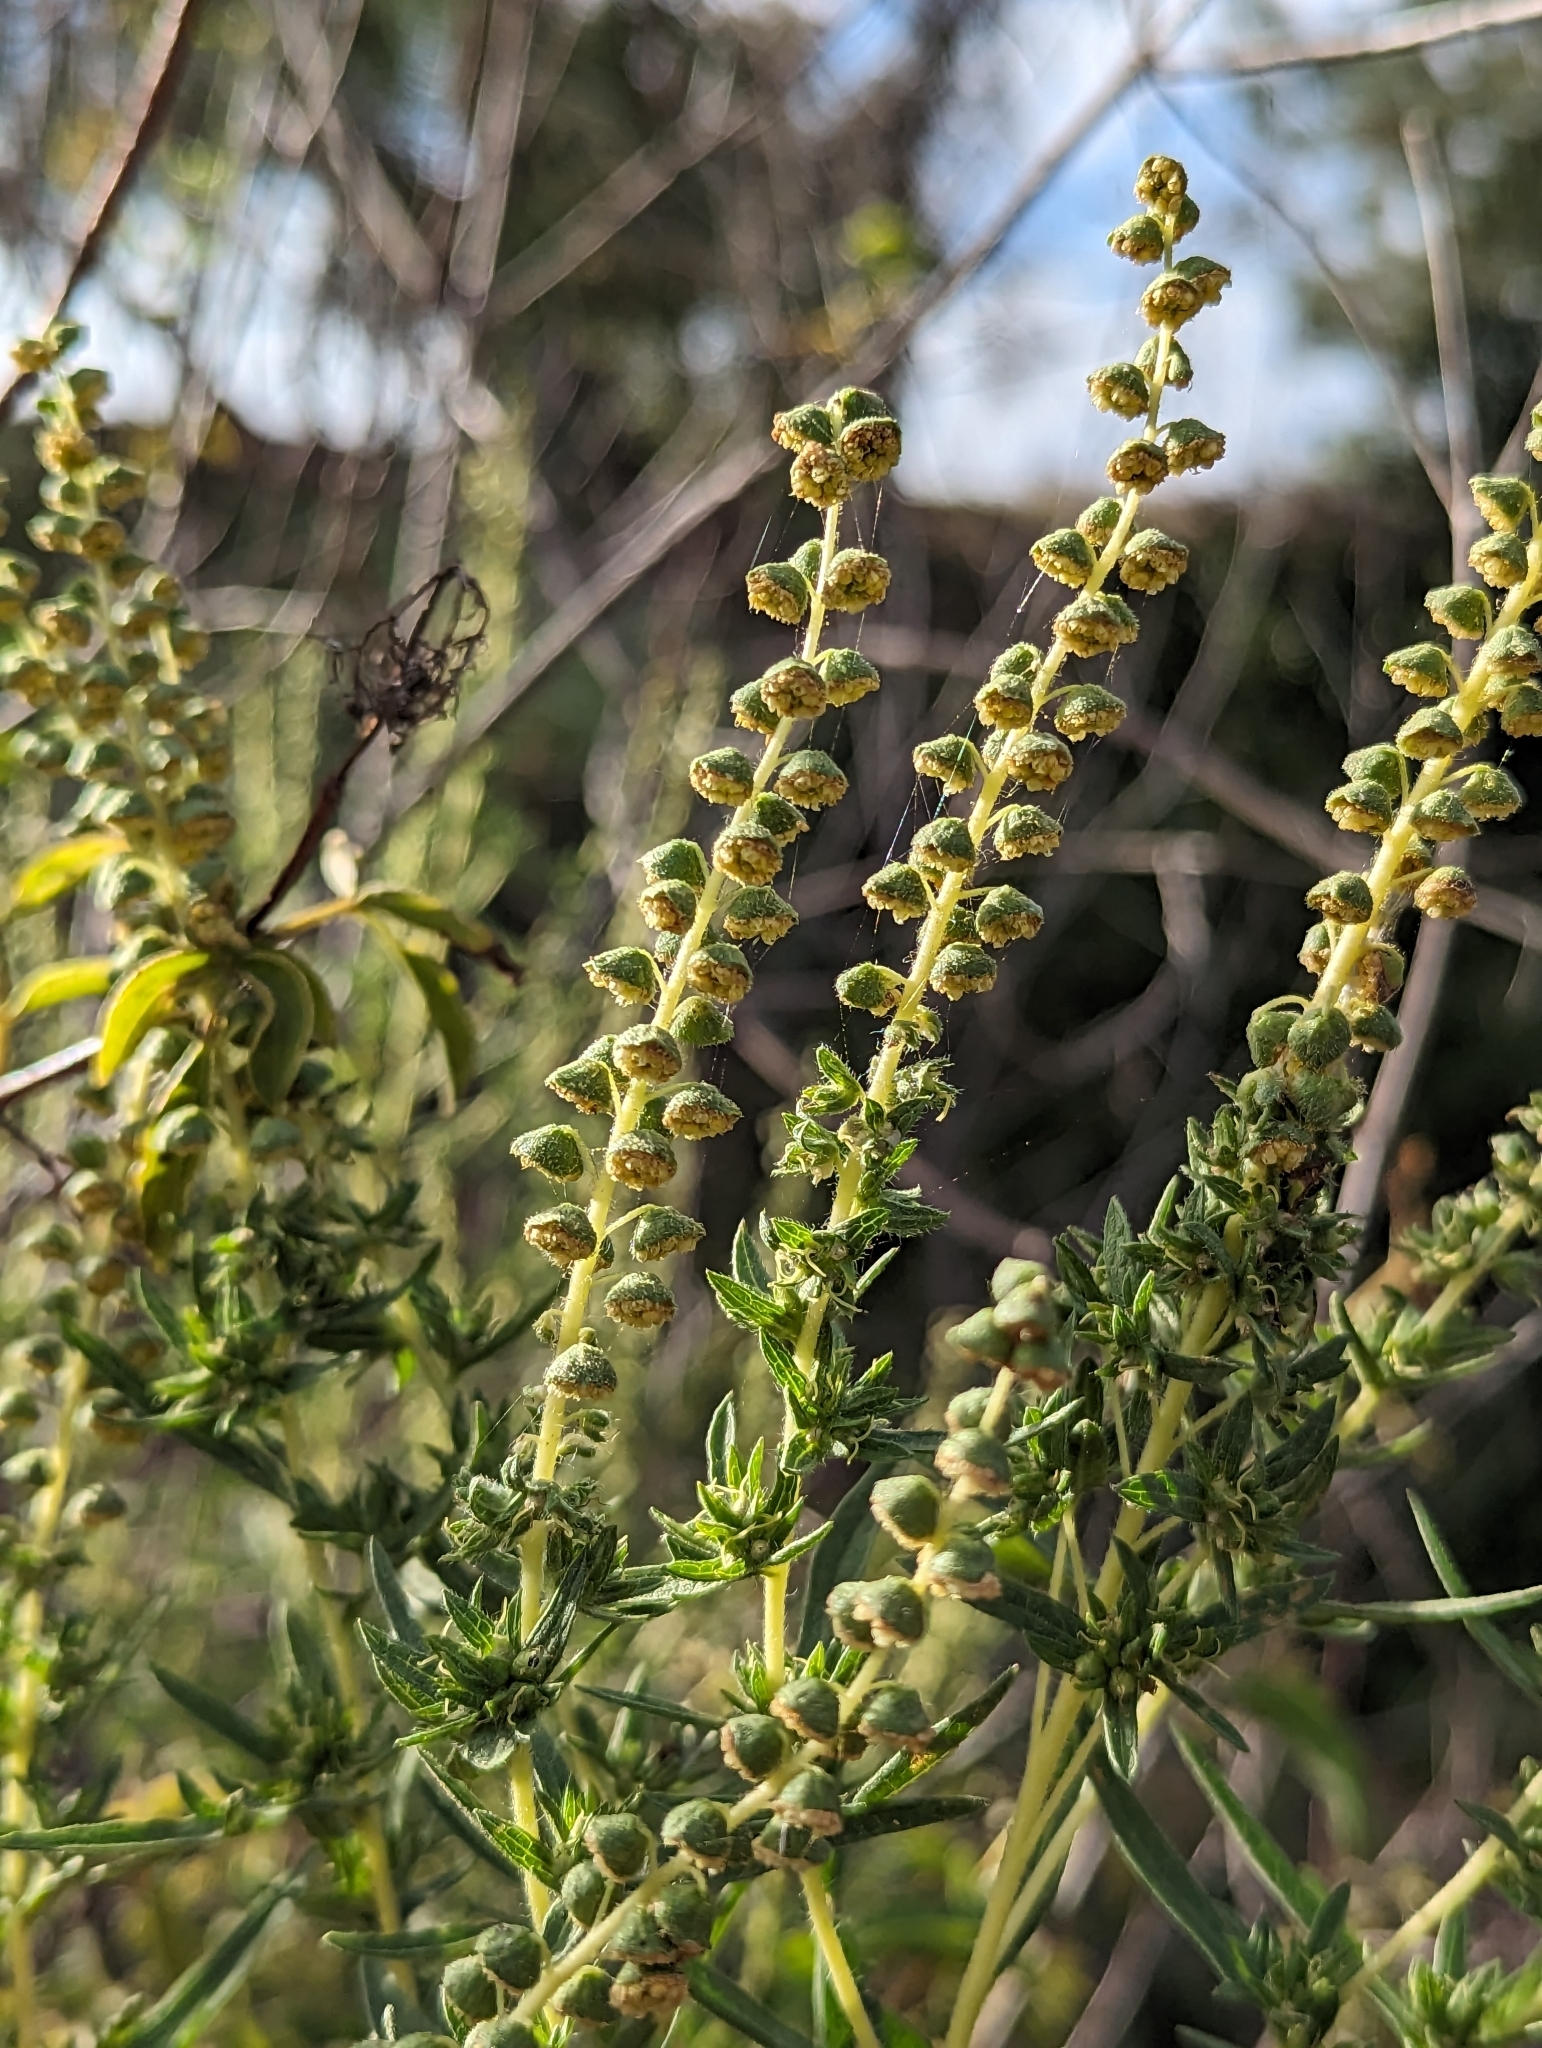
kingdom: Plantae
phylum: Tracheophyta
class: Magnoliopsida
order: Asterales
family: Asteraceae
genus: Ambrosia
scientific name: Ambrosia psilostachya
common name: Perennial ragweed
